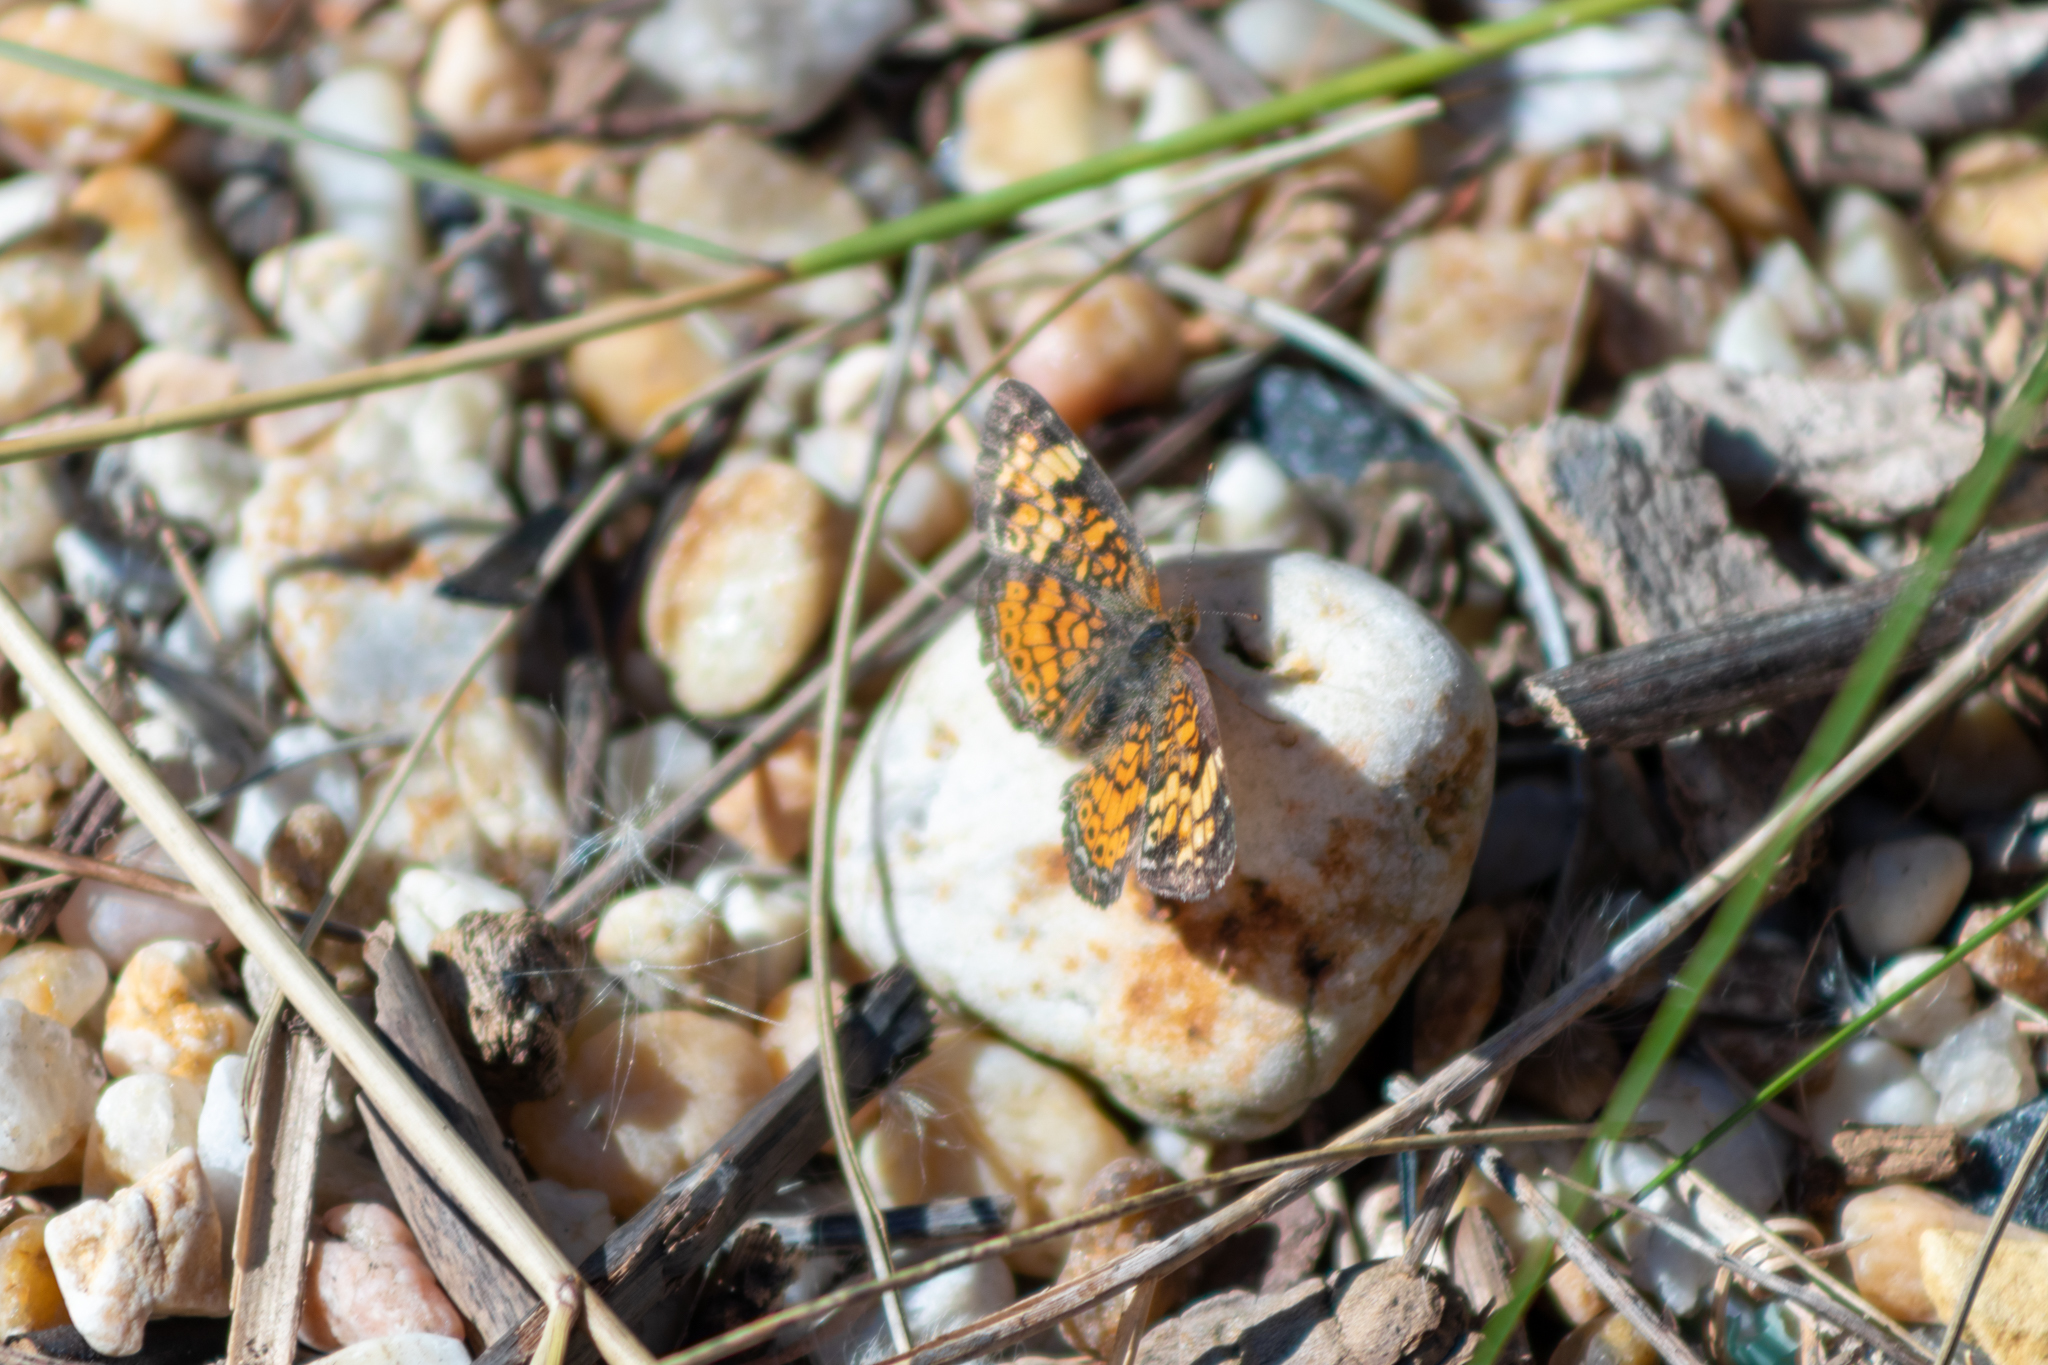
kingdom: Animalia
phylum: Arthropoda
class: Insecta
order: Lepidoptera
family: Nymphalidae
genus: Phyciodes
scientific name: Phyciodes tharos
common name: Pearl crescent
